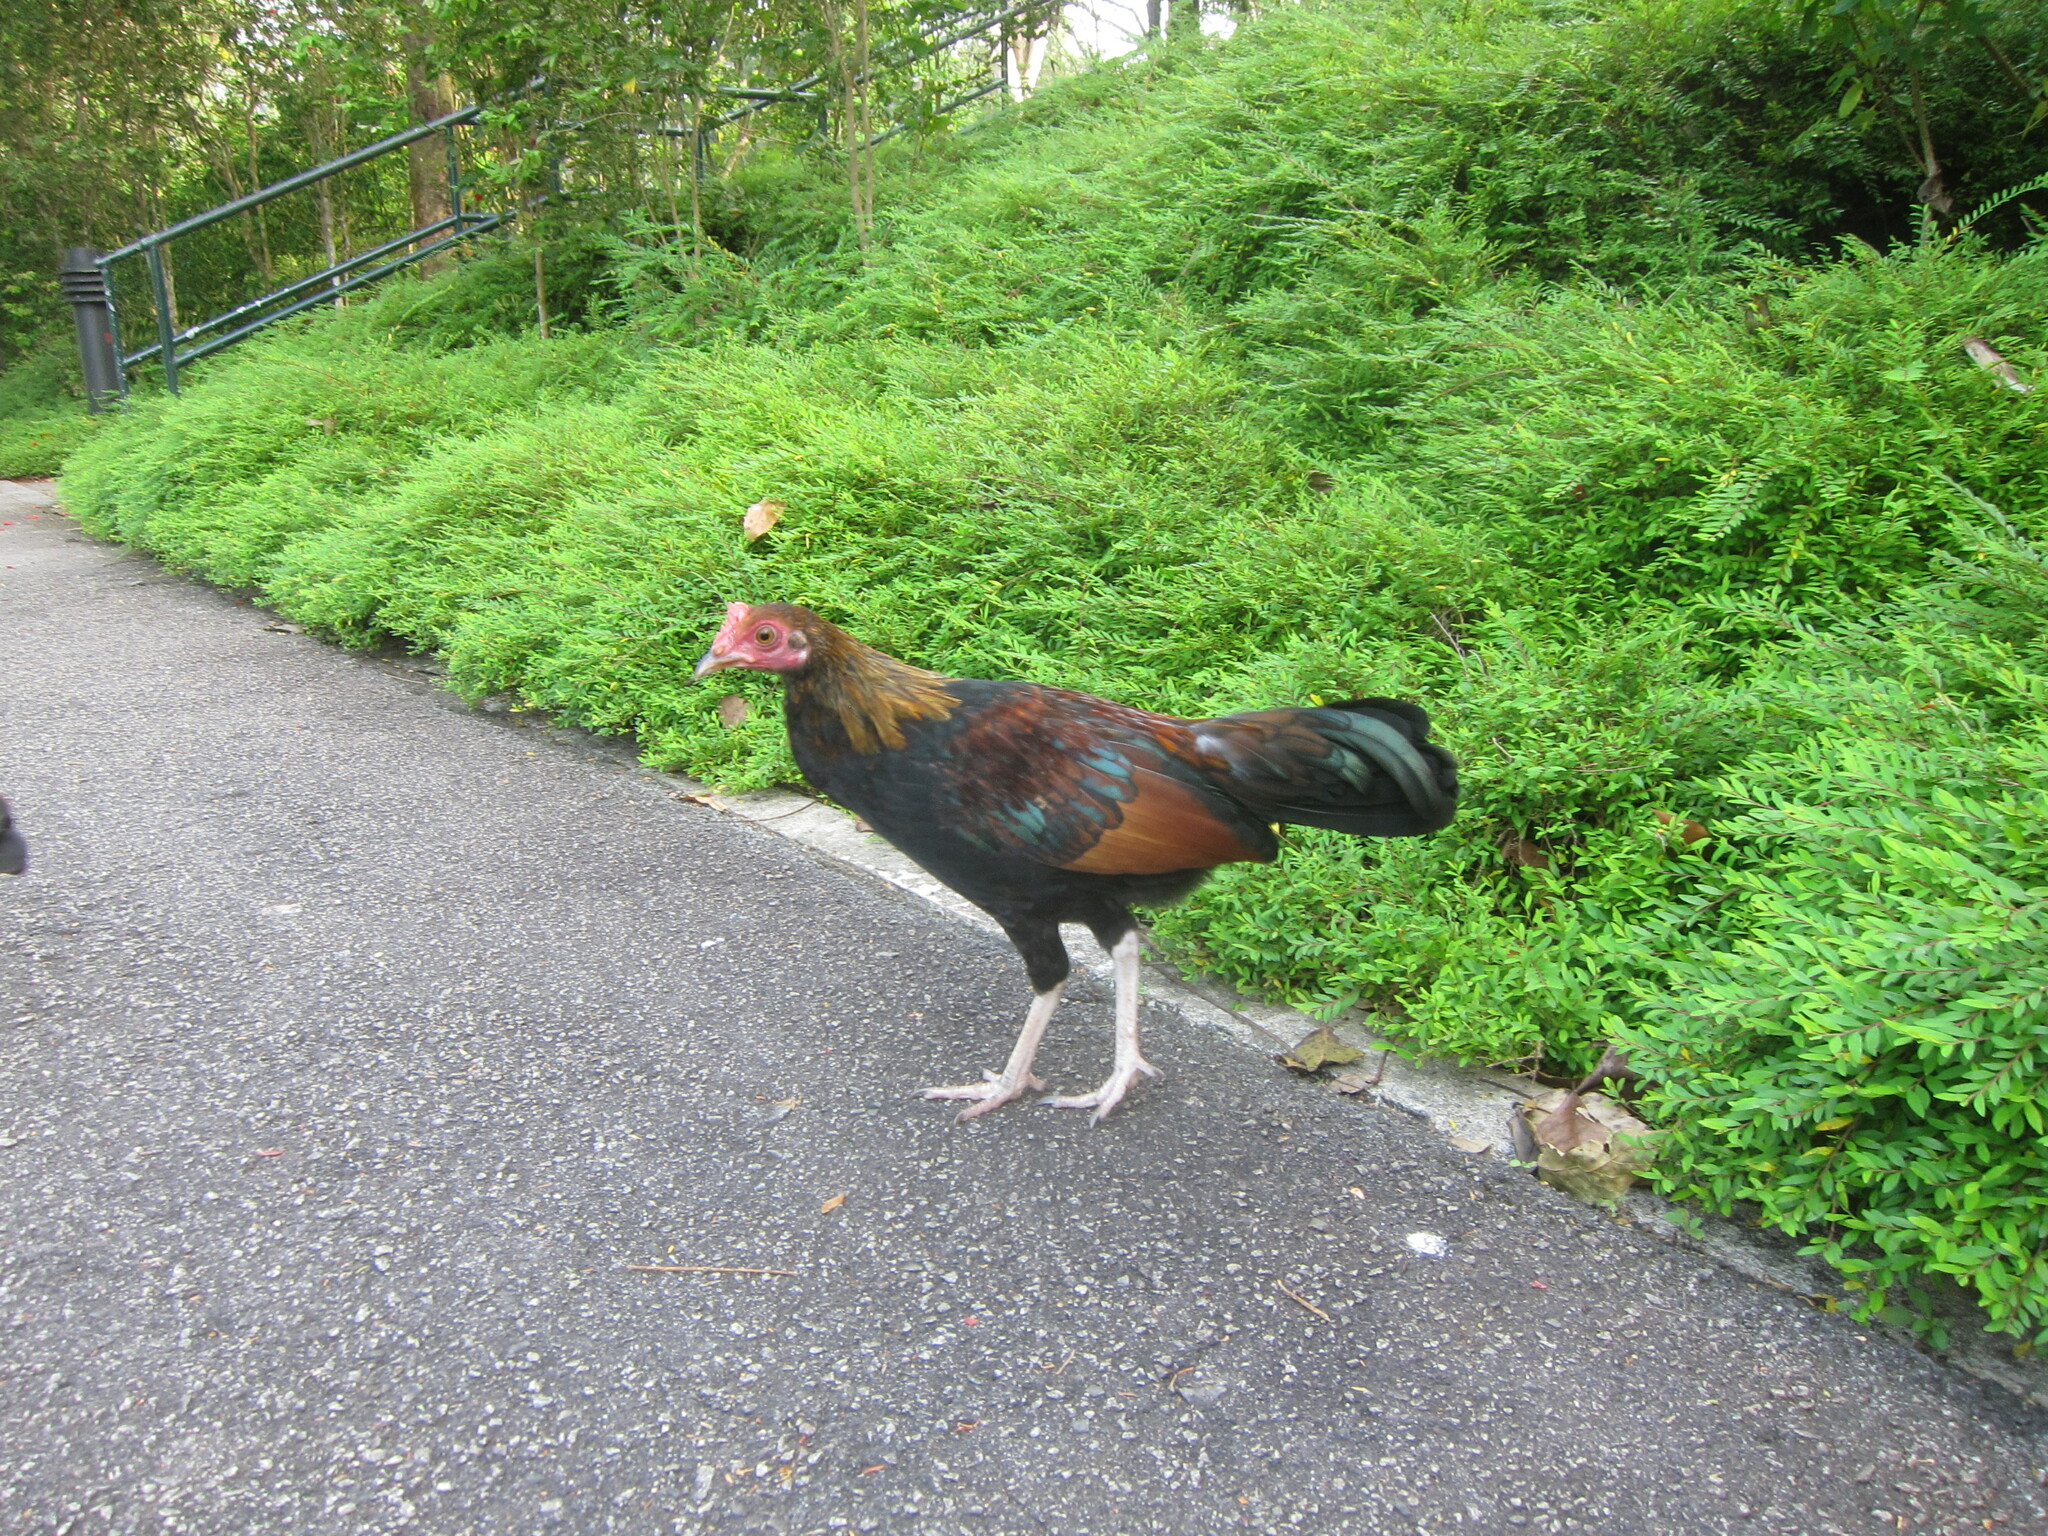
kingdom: Animalia
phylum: Chordata
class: Aves
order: Galliformes
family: Phasianidae
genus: Gallus
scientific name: Gallus gallus
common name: Red junglefowl
